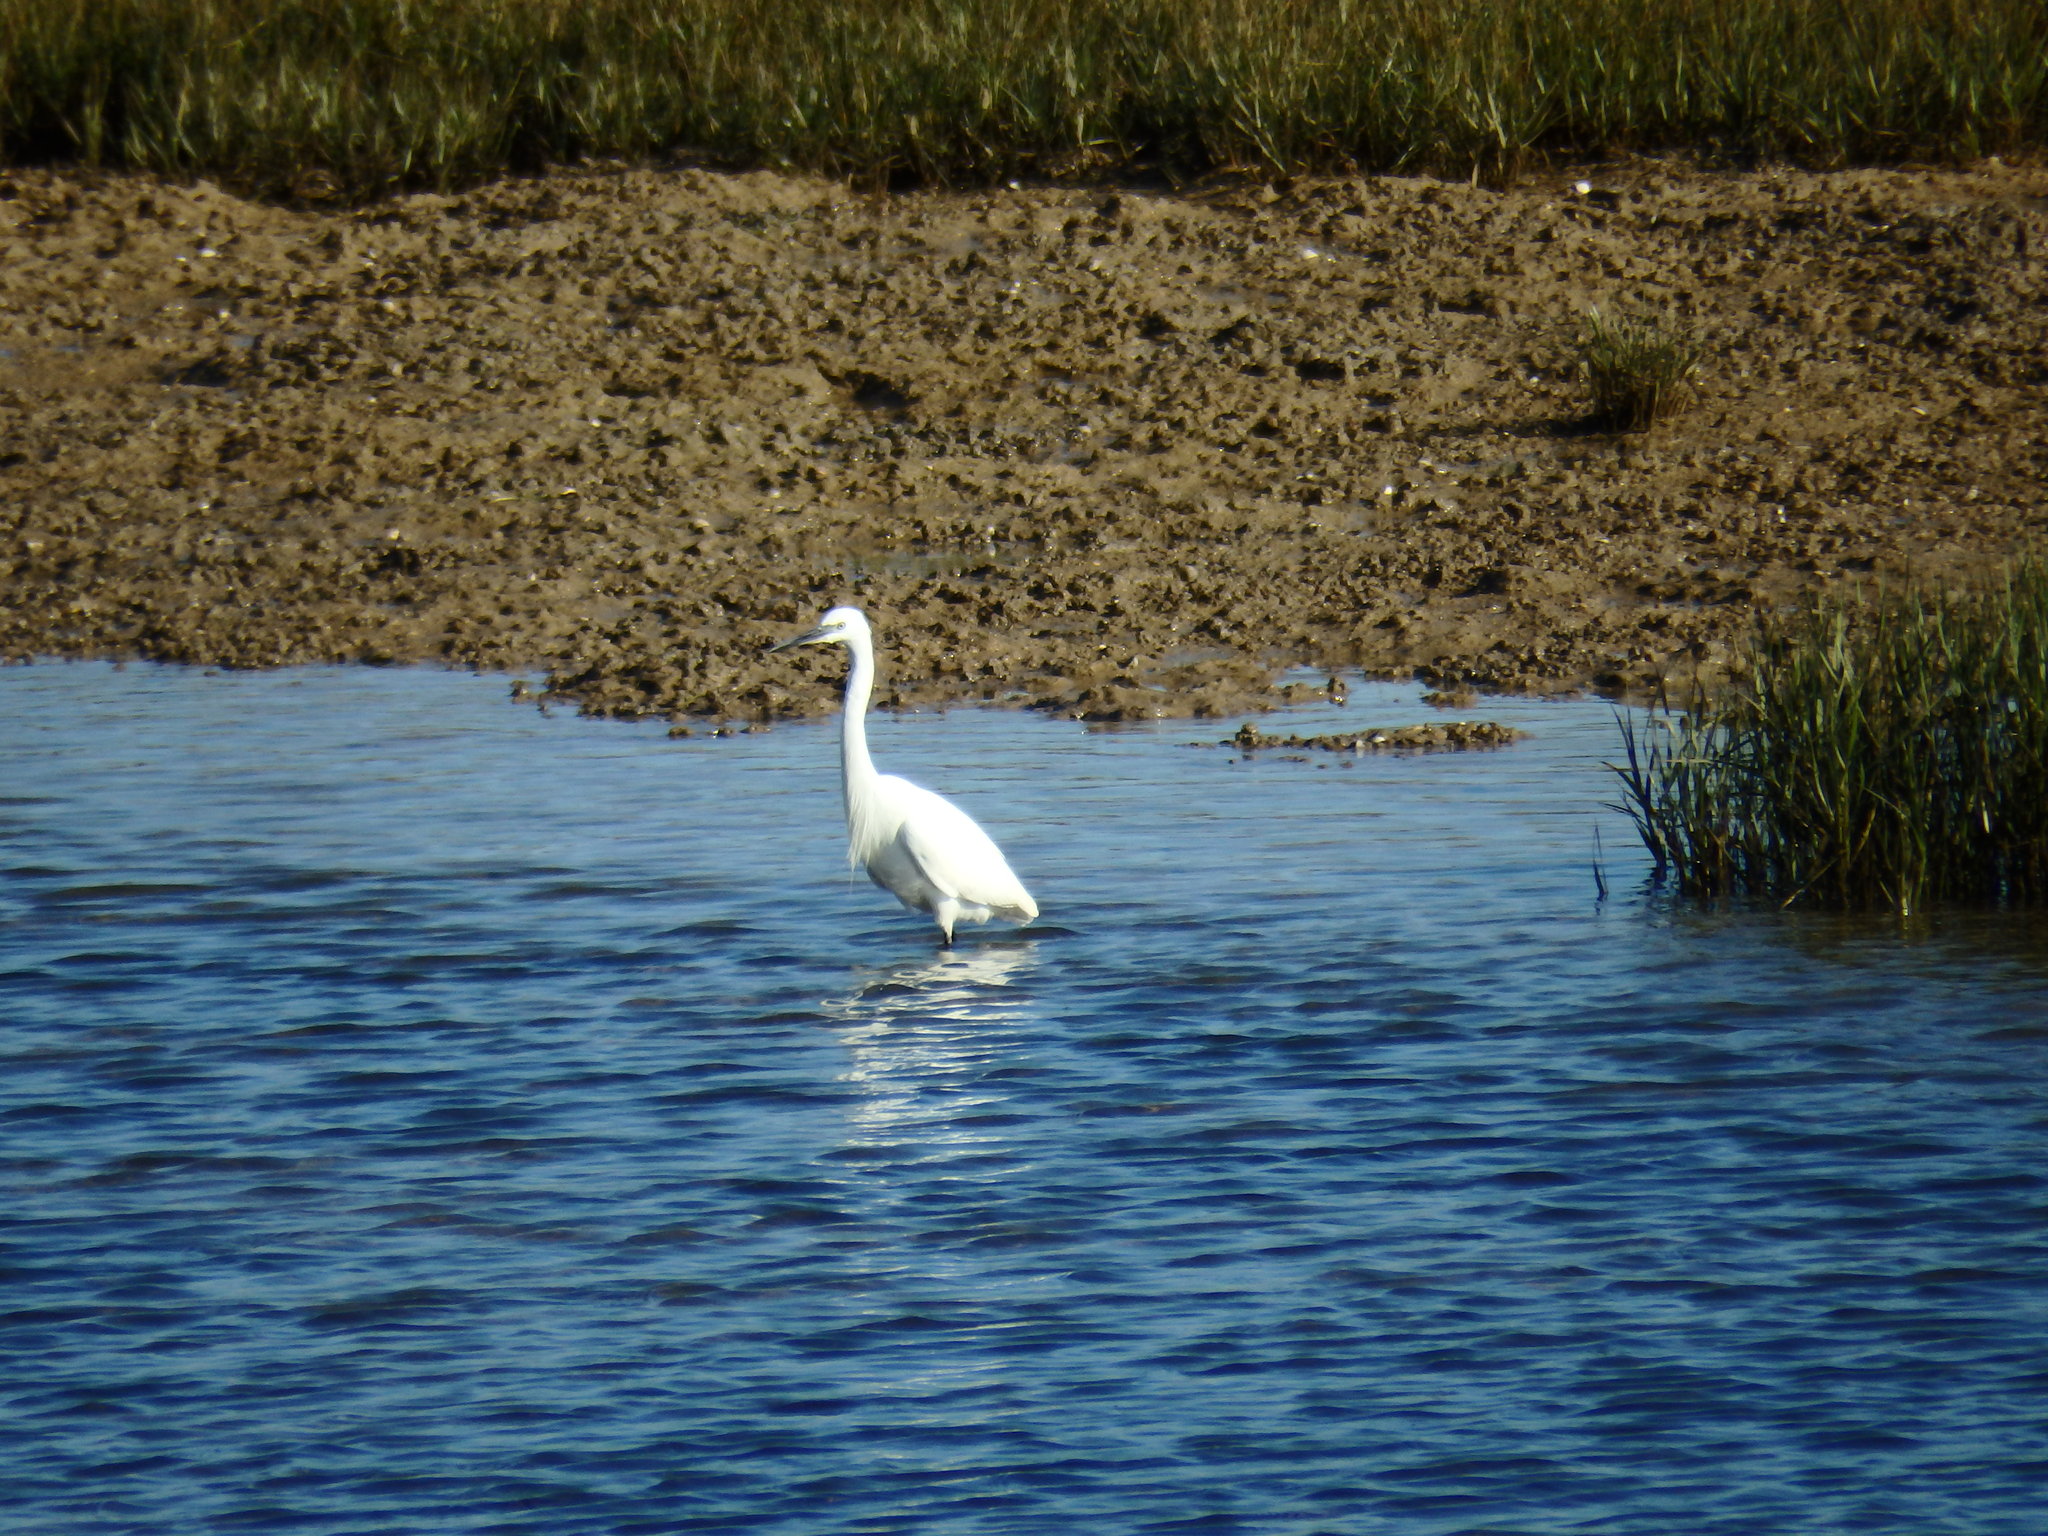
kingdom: Animalia
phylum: Chordata
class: Aves
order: Pelecaniformes
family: Ardeidae
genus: Egretta
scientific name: Egretta garzetta
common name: Little egret
